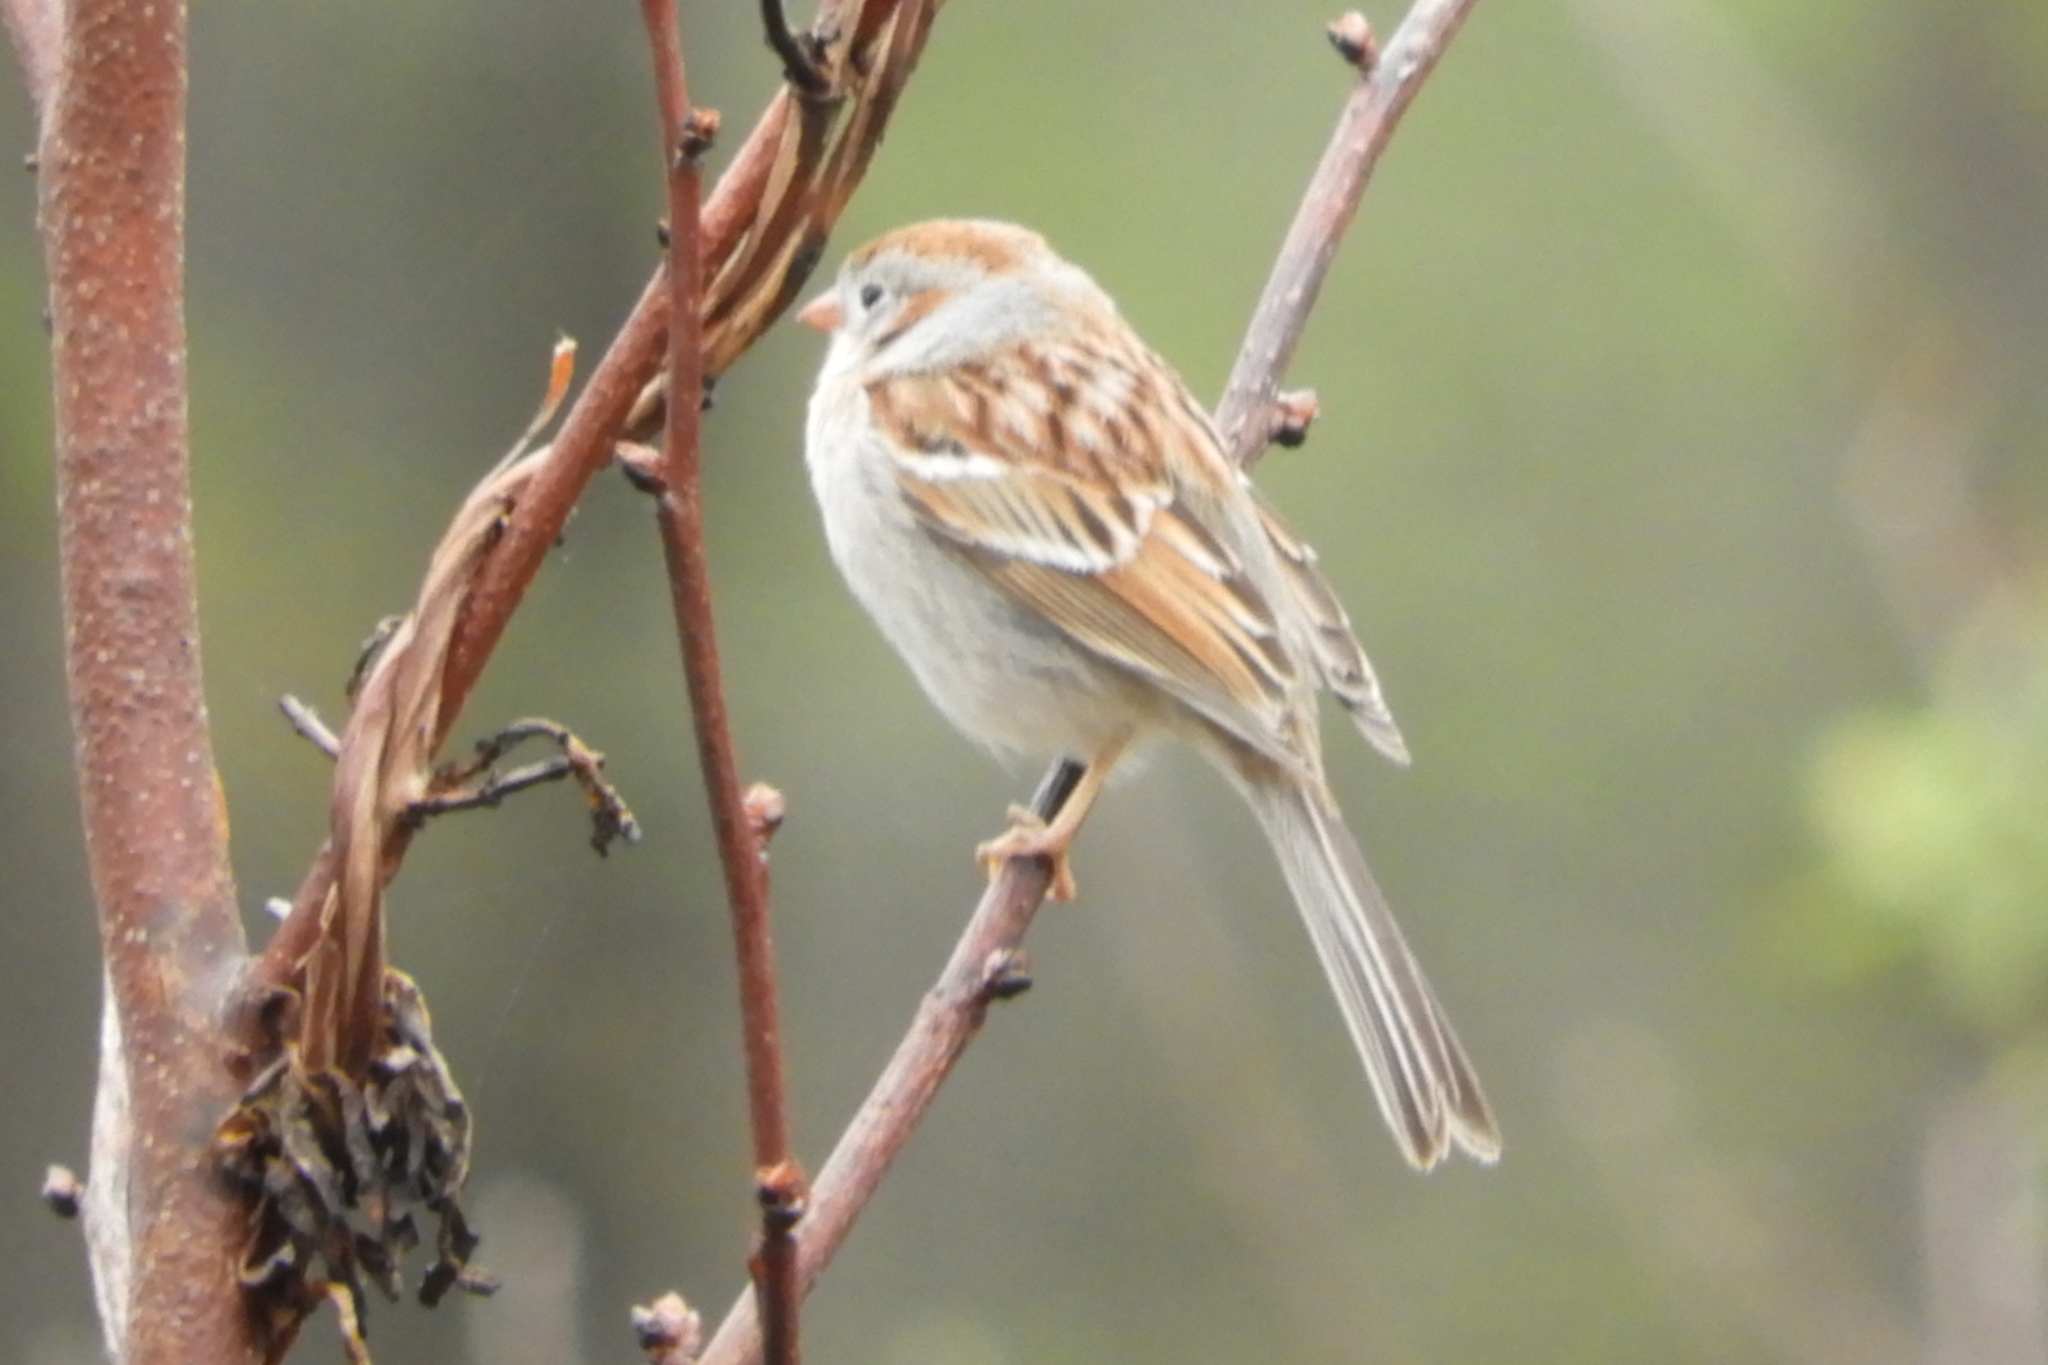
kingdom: Animalia
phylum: Chordata
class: Aves
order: Passeriformes
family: Passerellidae
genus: Spizella
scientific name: Spizella pusilla
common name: Field sparrow
